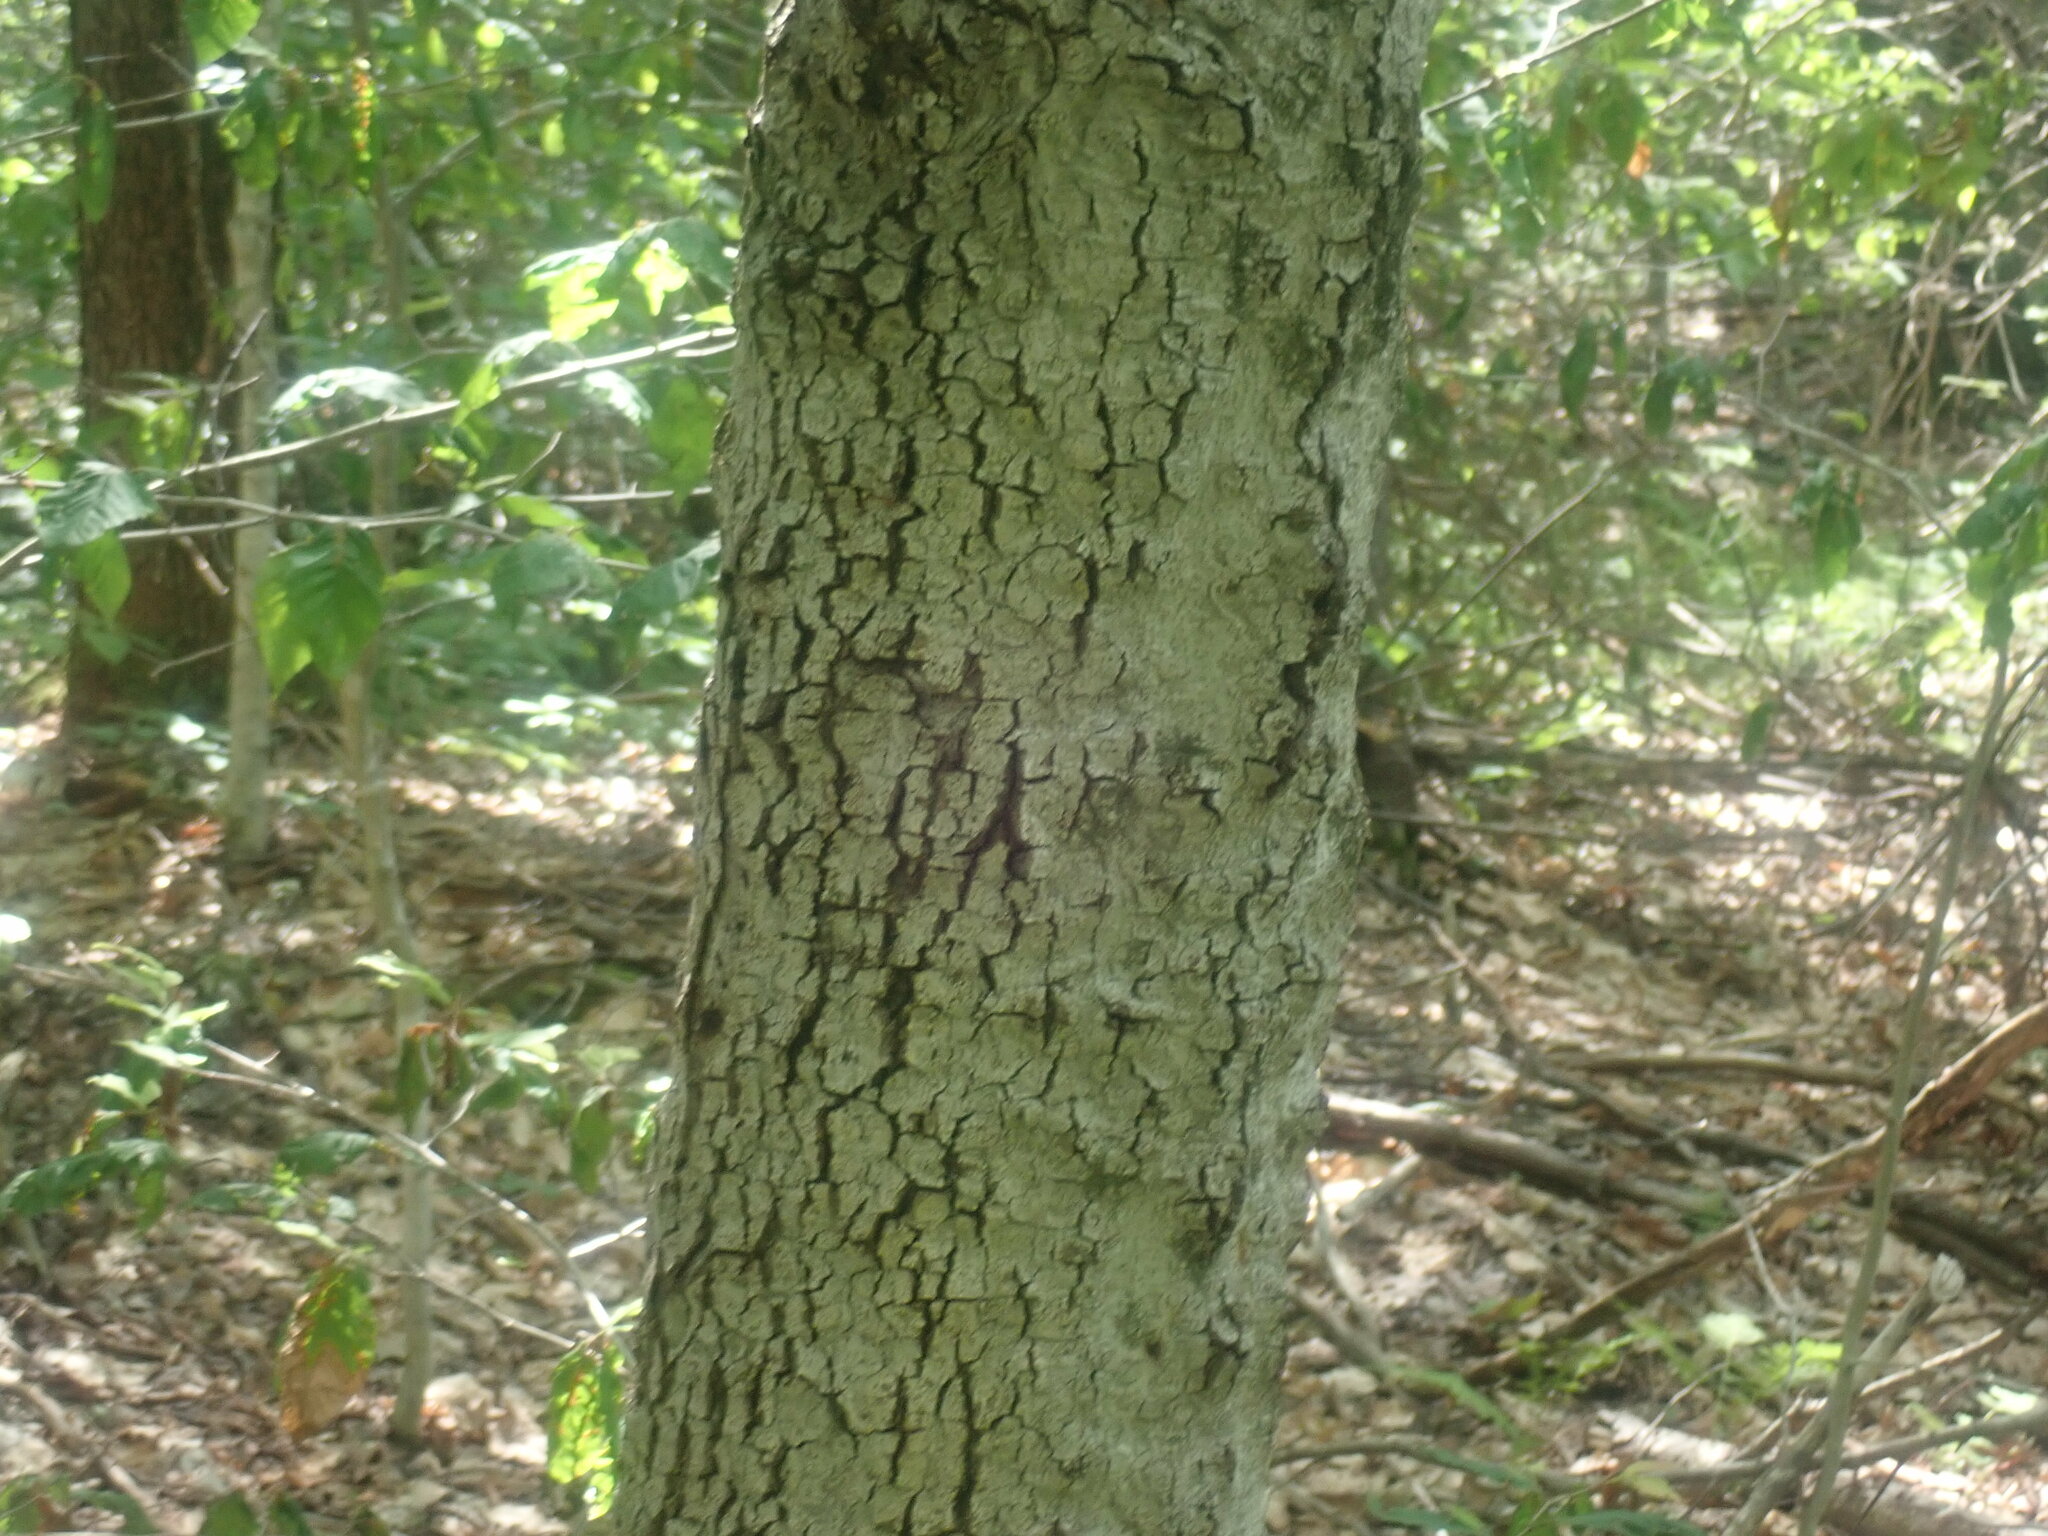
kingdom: Fungi
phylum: Ascomycota
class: Sordariomycetes
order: Hypocreales
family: Nectriaceae
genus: Neonectria
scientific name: Neonectria faginata
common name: Beech bark canker
